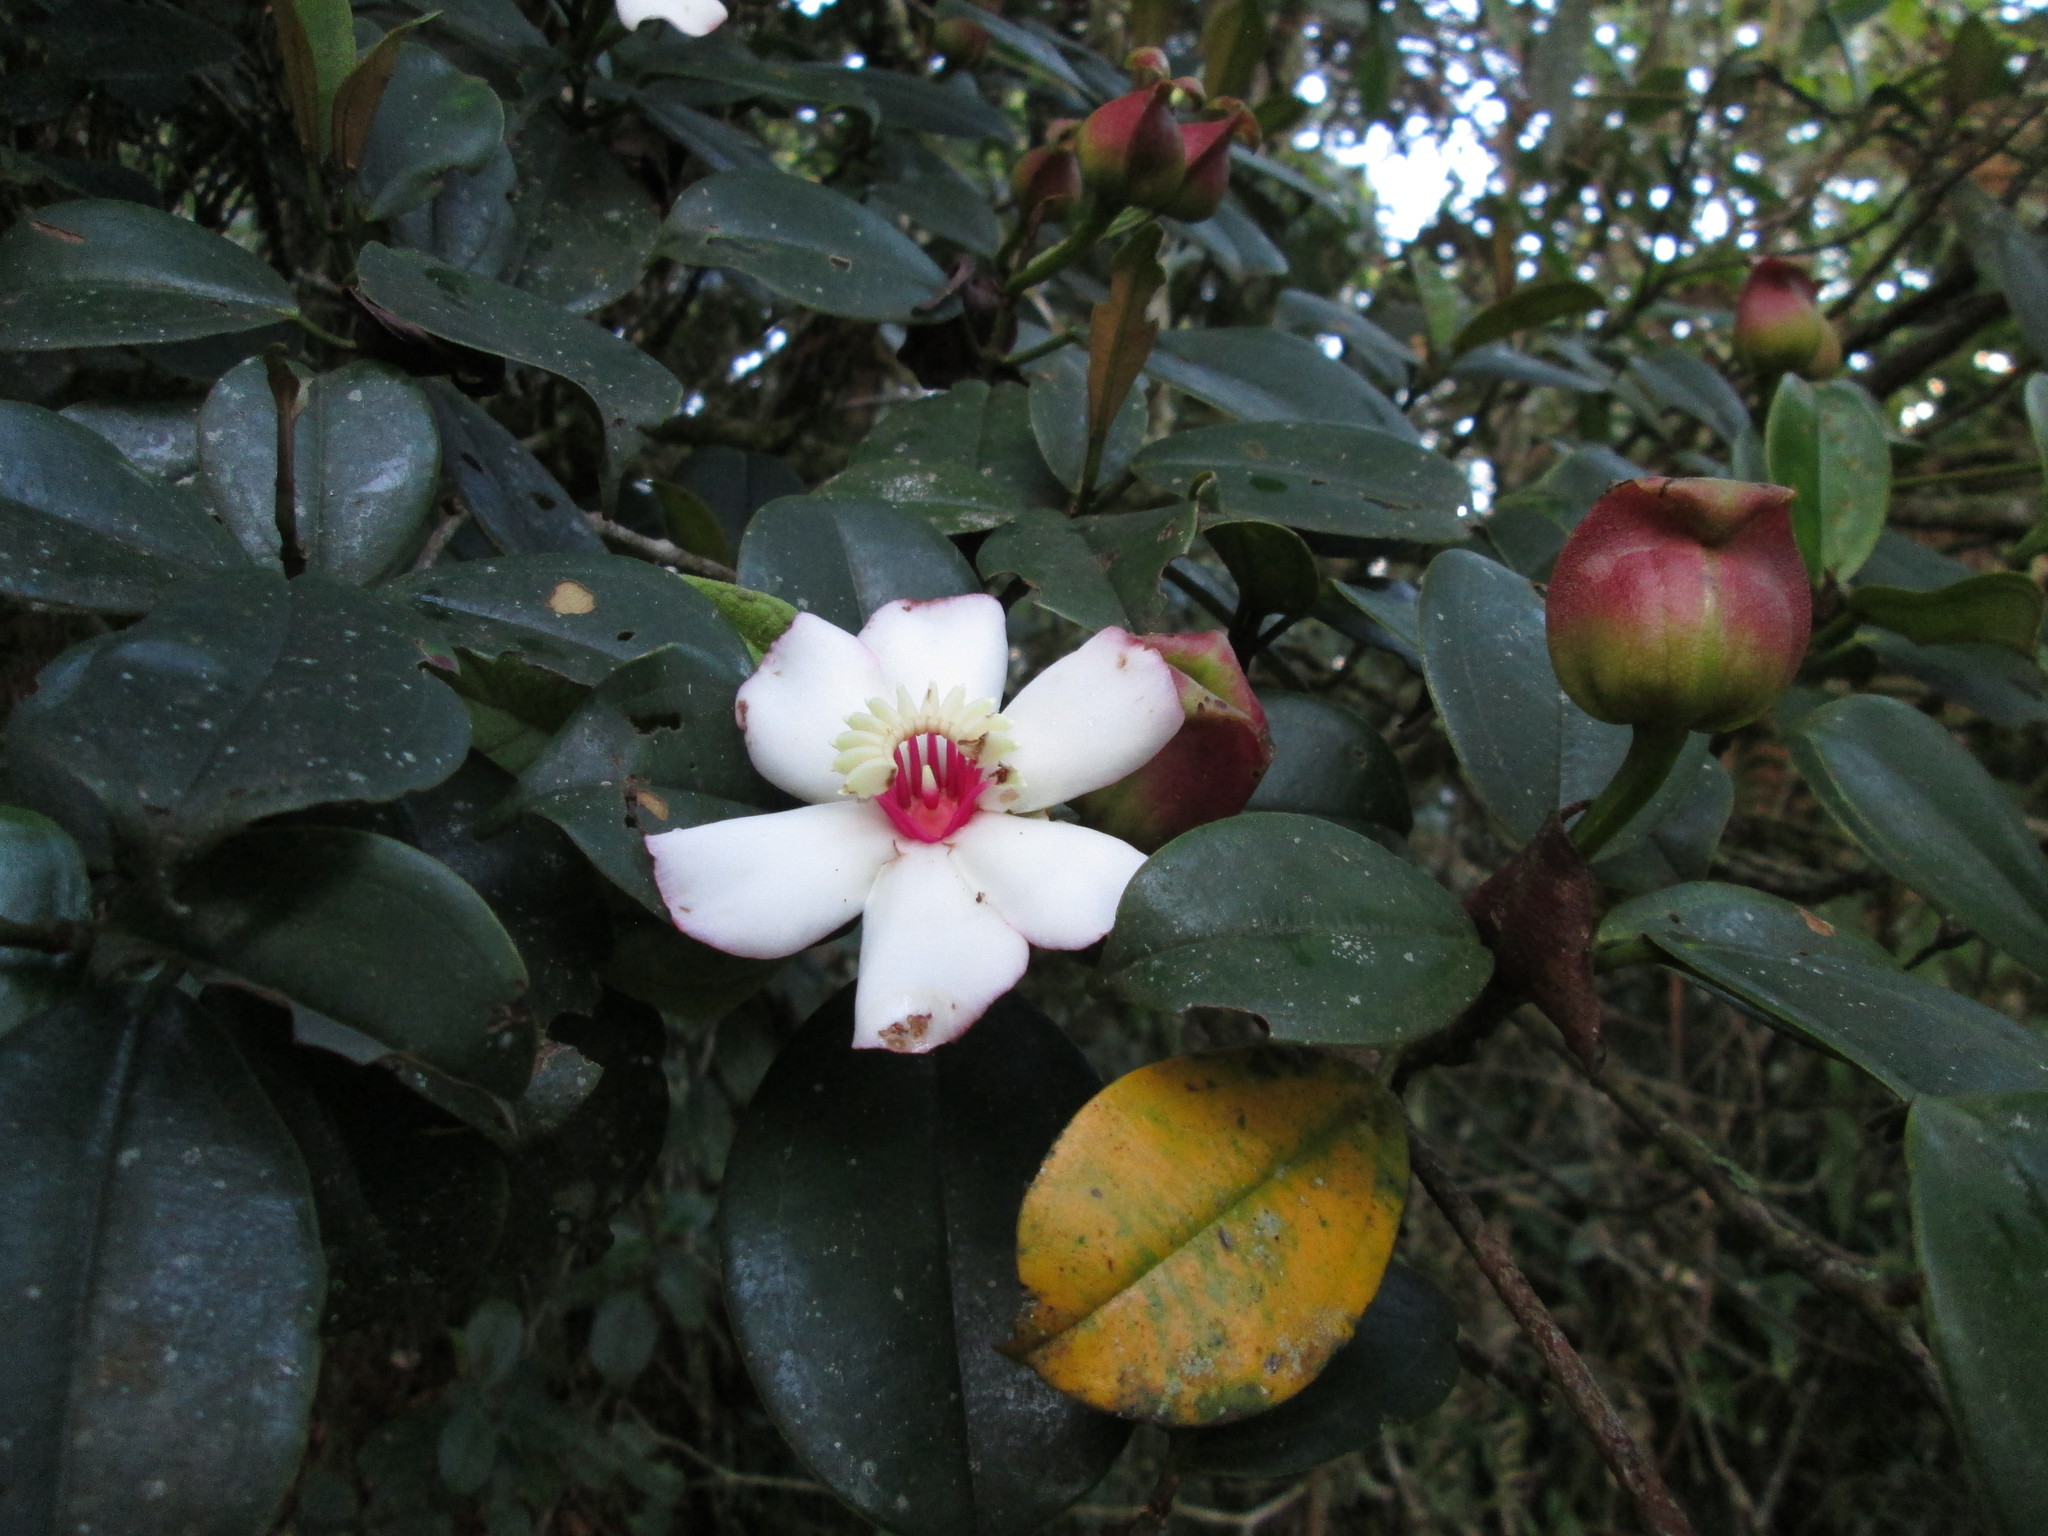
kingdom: Plantae
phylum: Tracheophyta
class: Magnoliopsida
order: Myrtales
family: Melastomataceae
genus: Blakea
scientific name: Blakea quadrangularis
